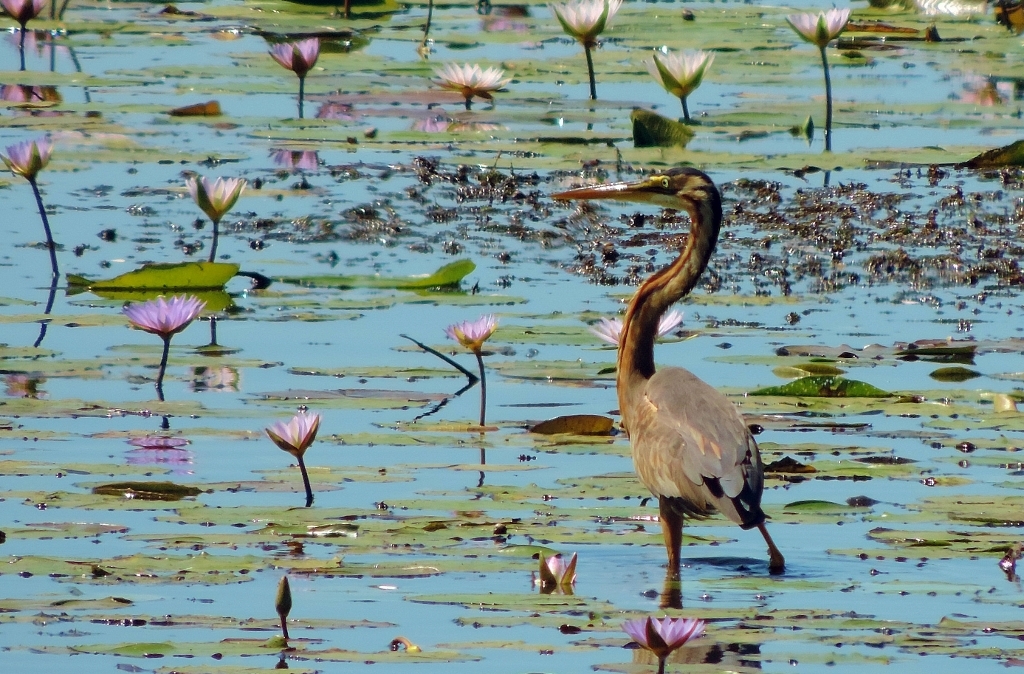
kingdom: Animalia
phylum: Chordata
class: Aves
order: Pelecaniformes
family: Ardeidae
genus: Ardea
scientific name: Ardea purpurea
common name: Purple heron
